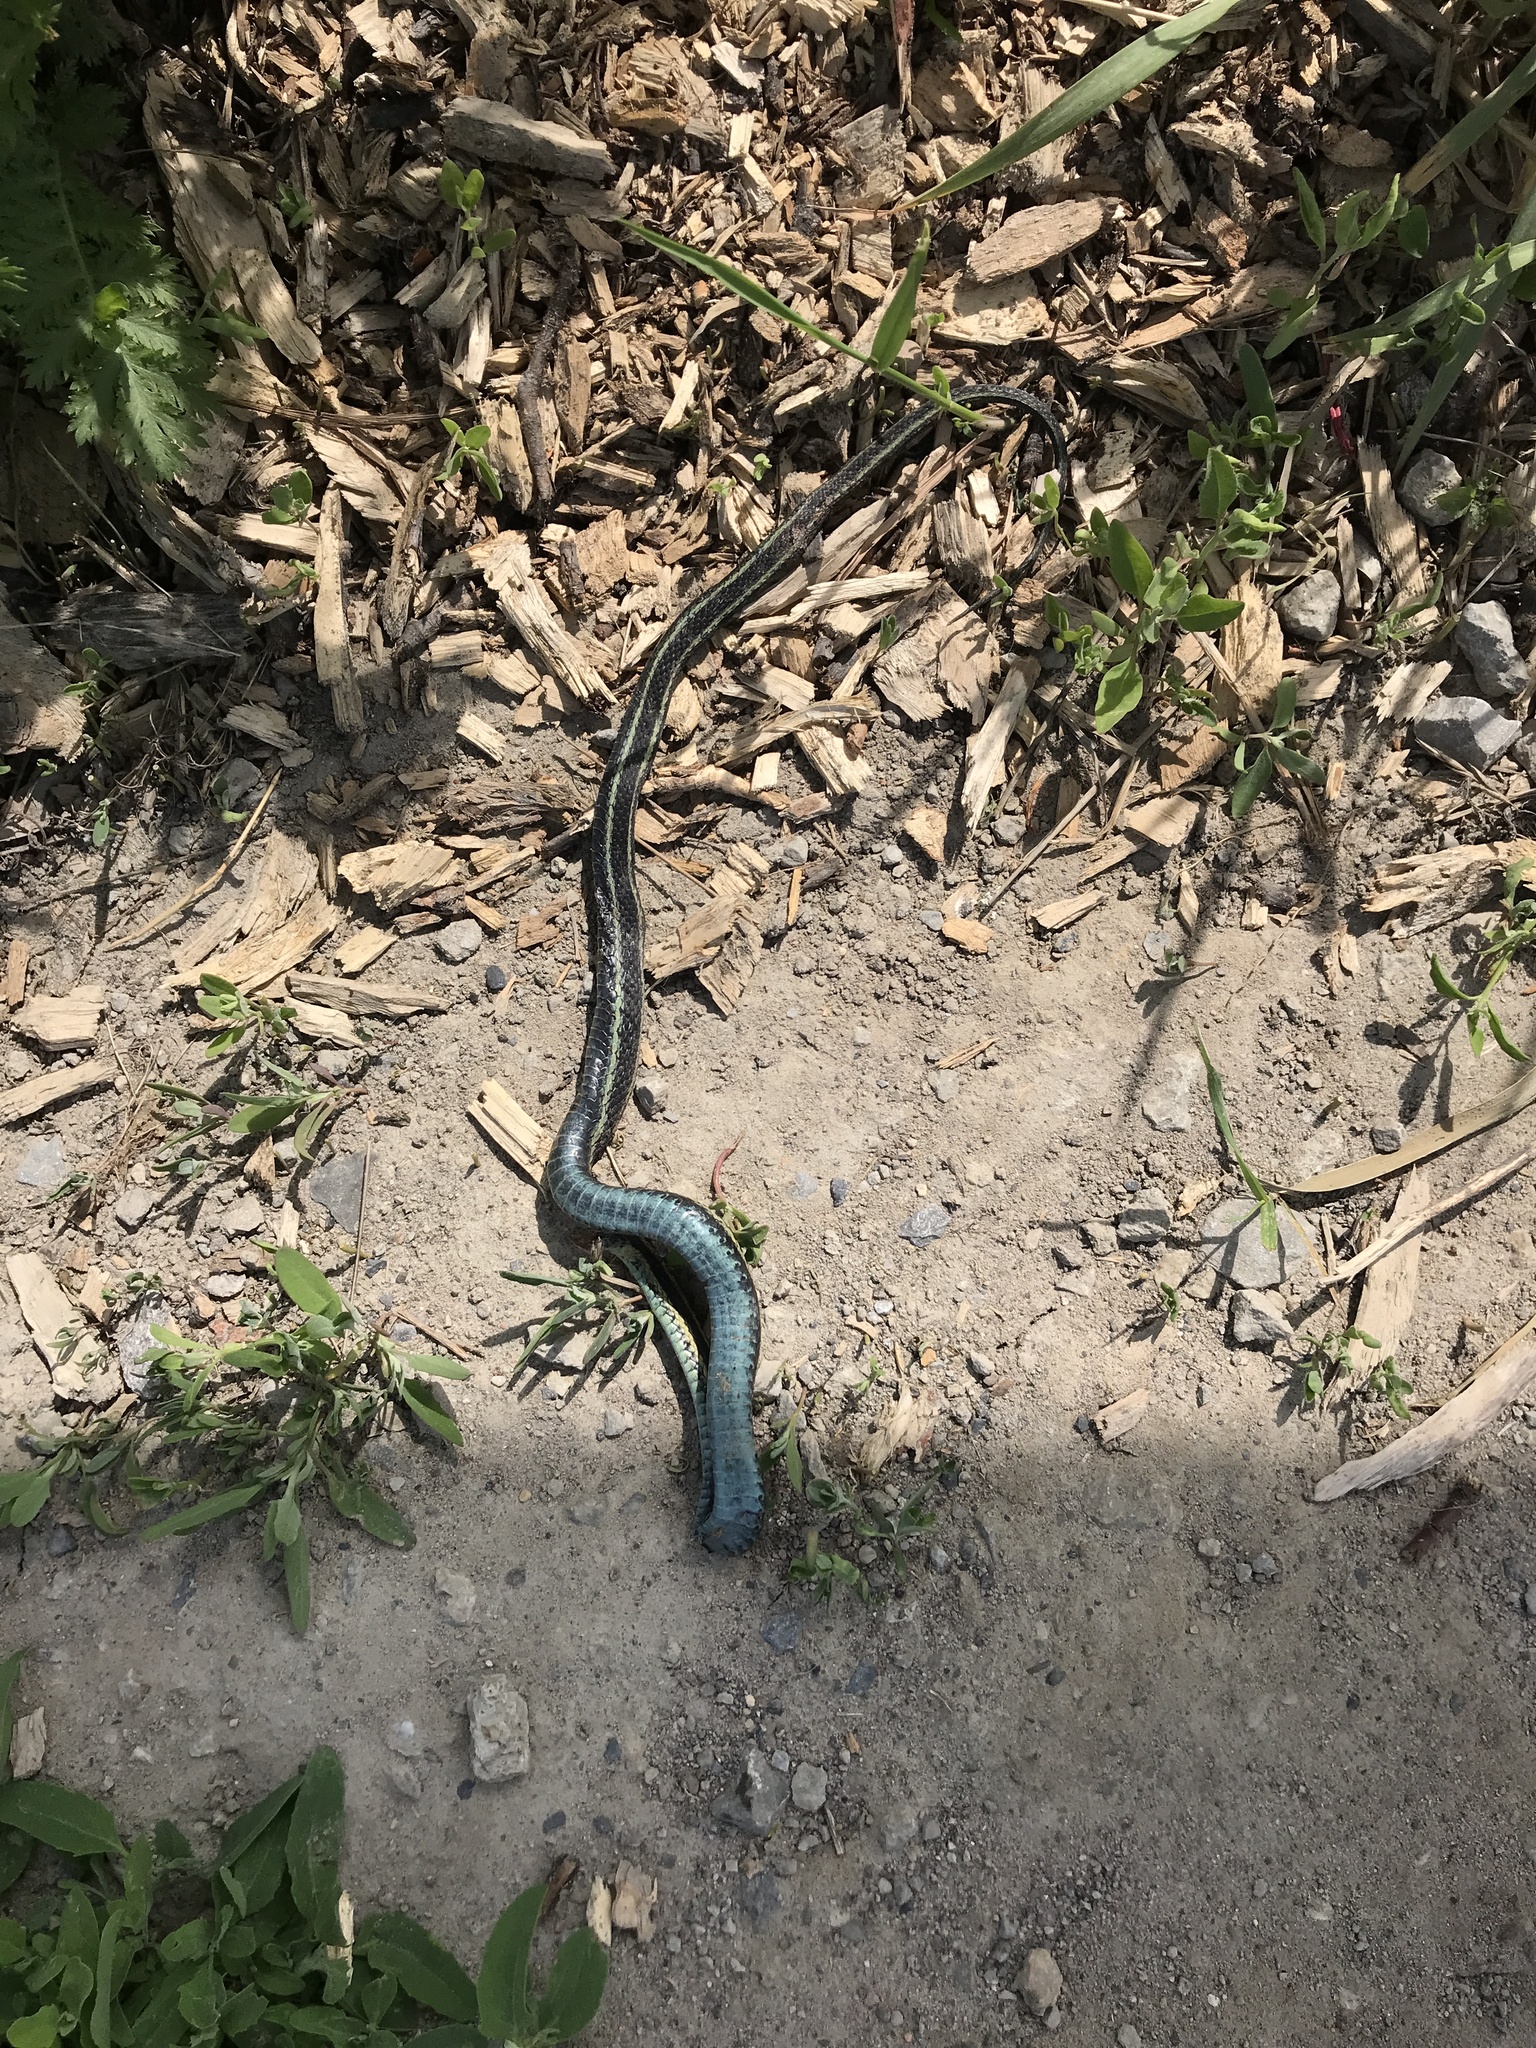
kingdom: Animalia
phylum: Chordata
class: Squamata
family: Colubridae
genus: Thamnophis
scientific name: Thamnophis sirtalis
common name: Common garter snake
